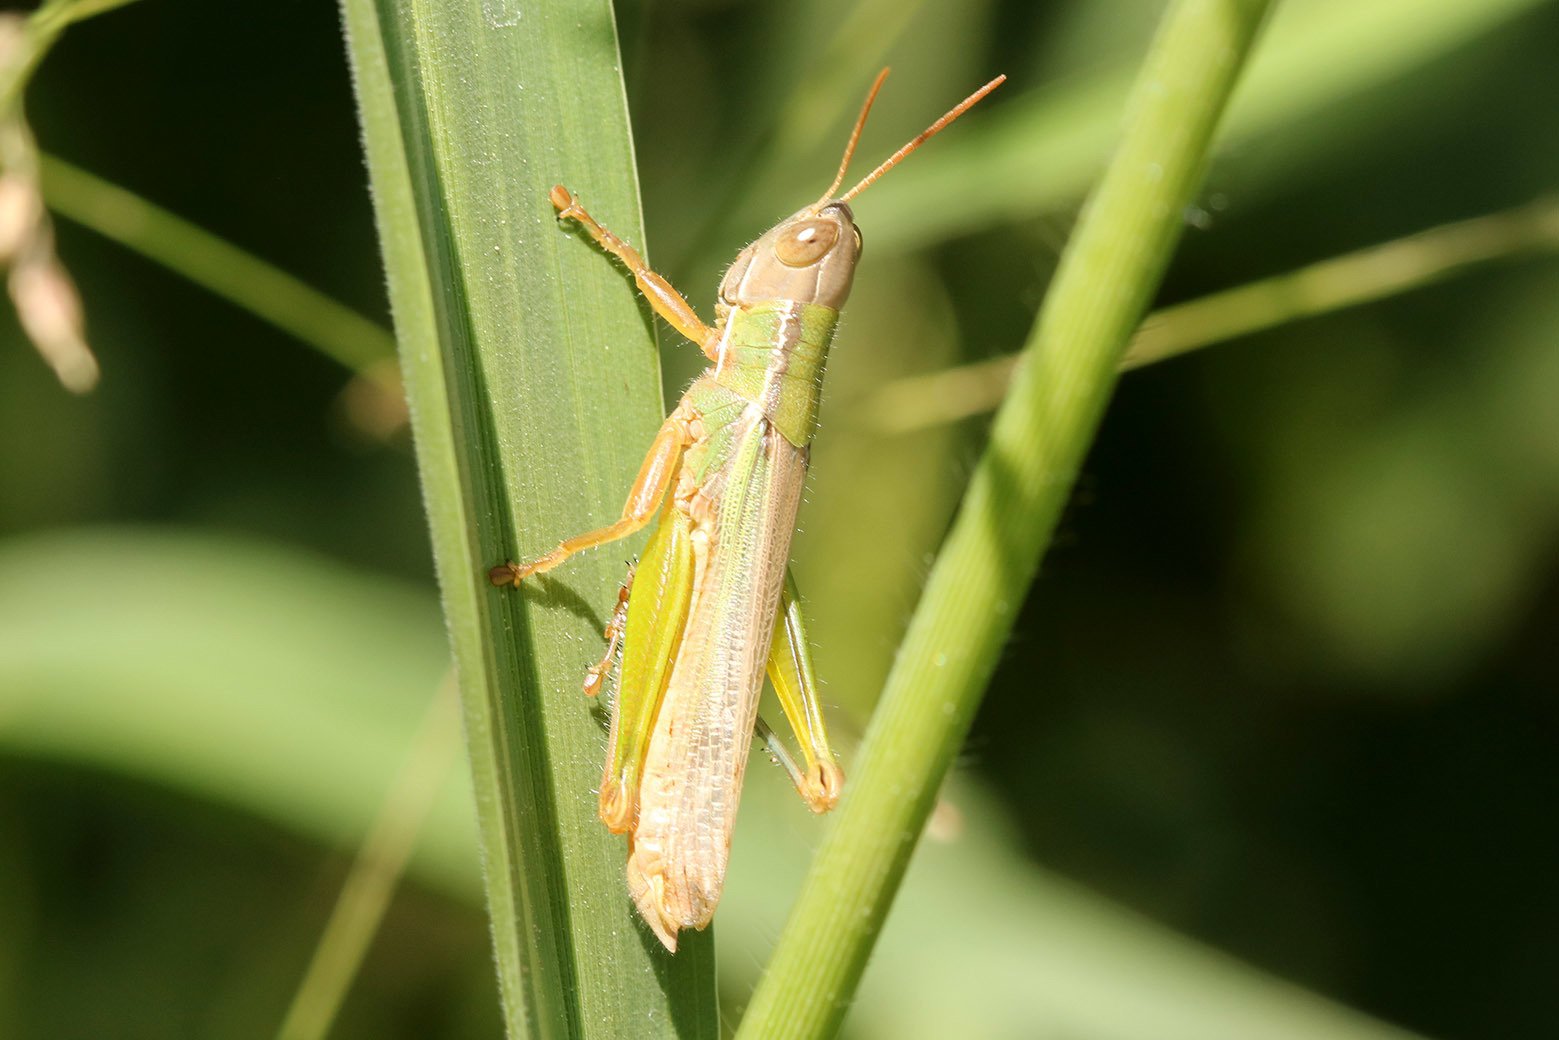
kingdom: Animalia
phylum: Arthropoda
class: Insecta
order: Orthoptera
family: Acrididae
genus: Aleuas
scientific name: Aleuas lineatus
